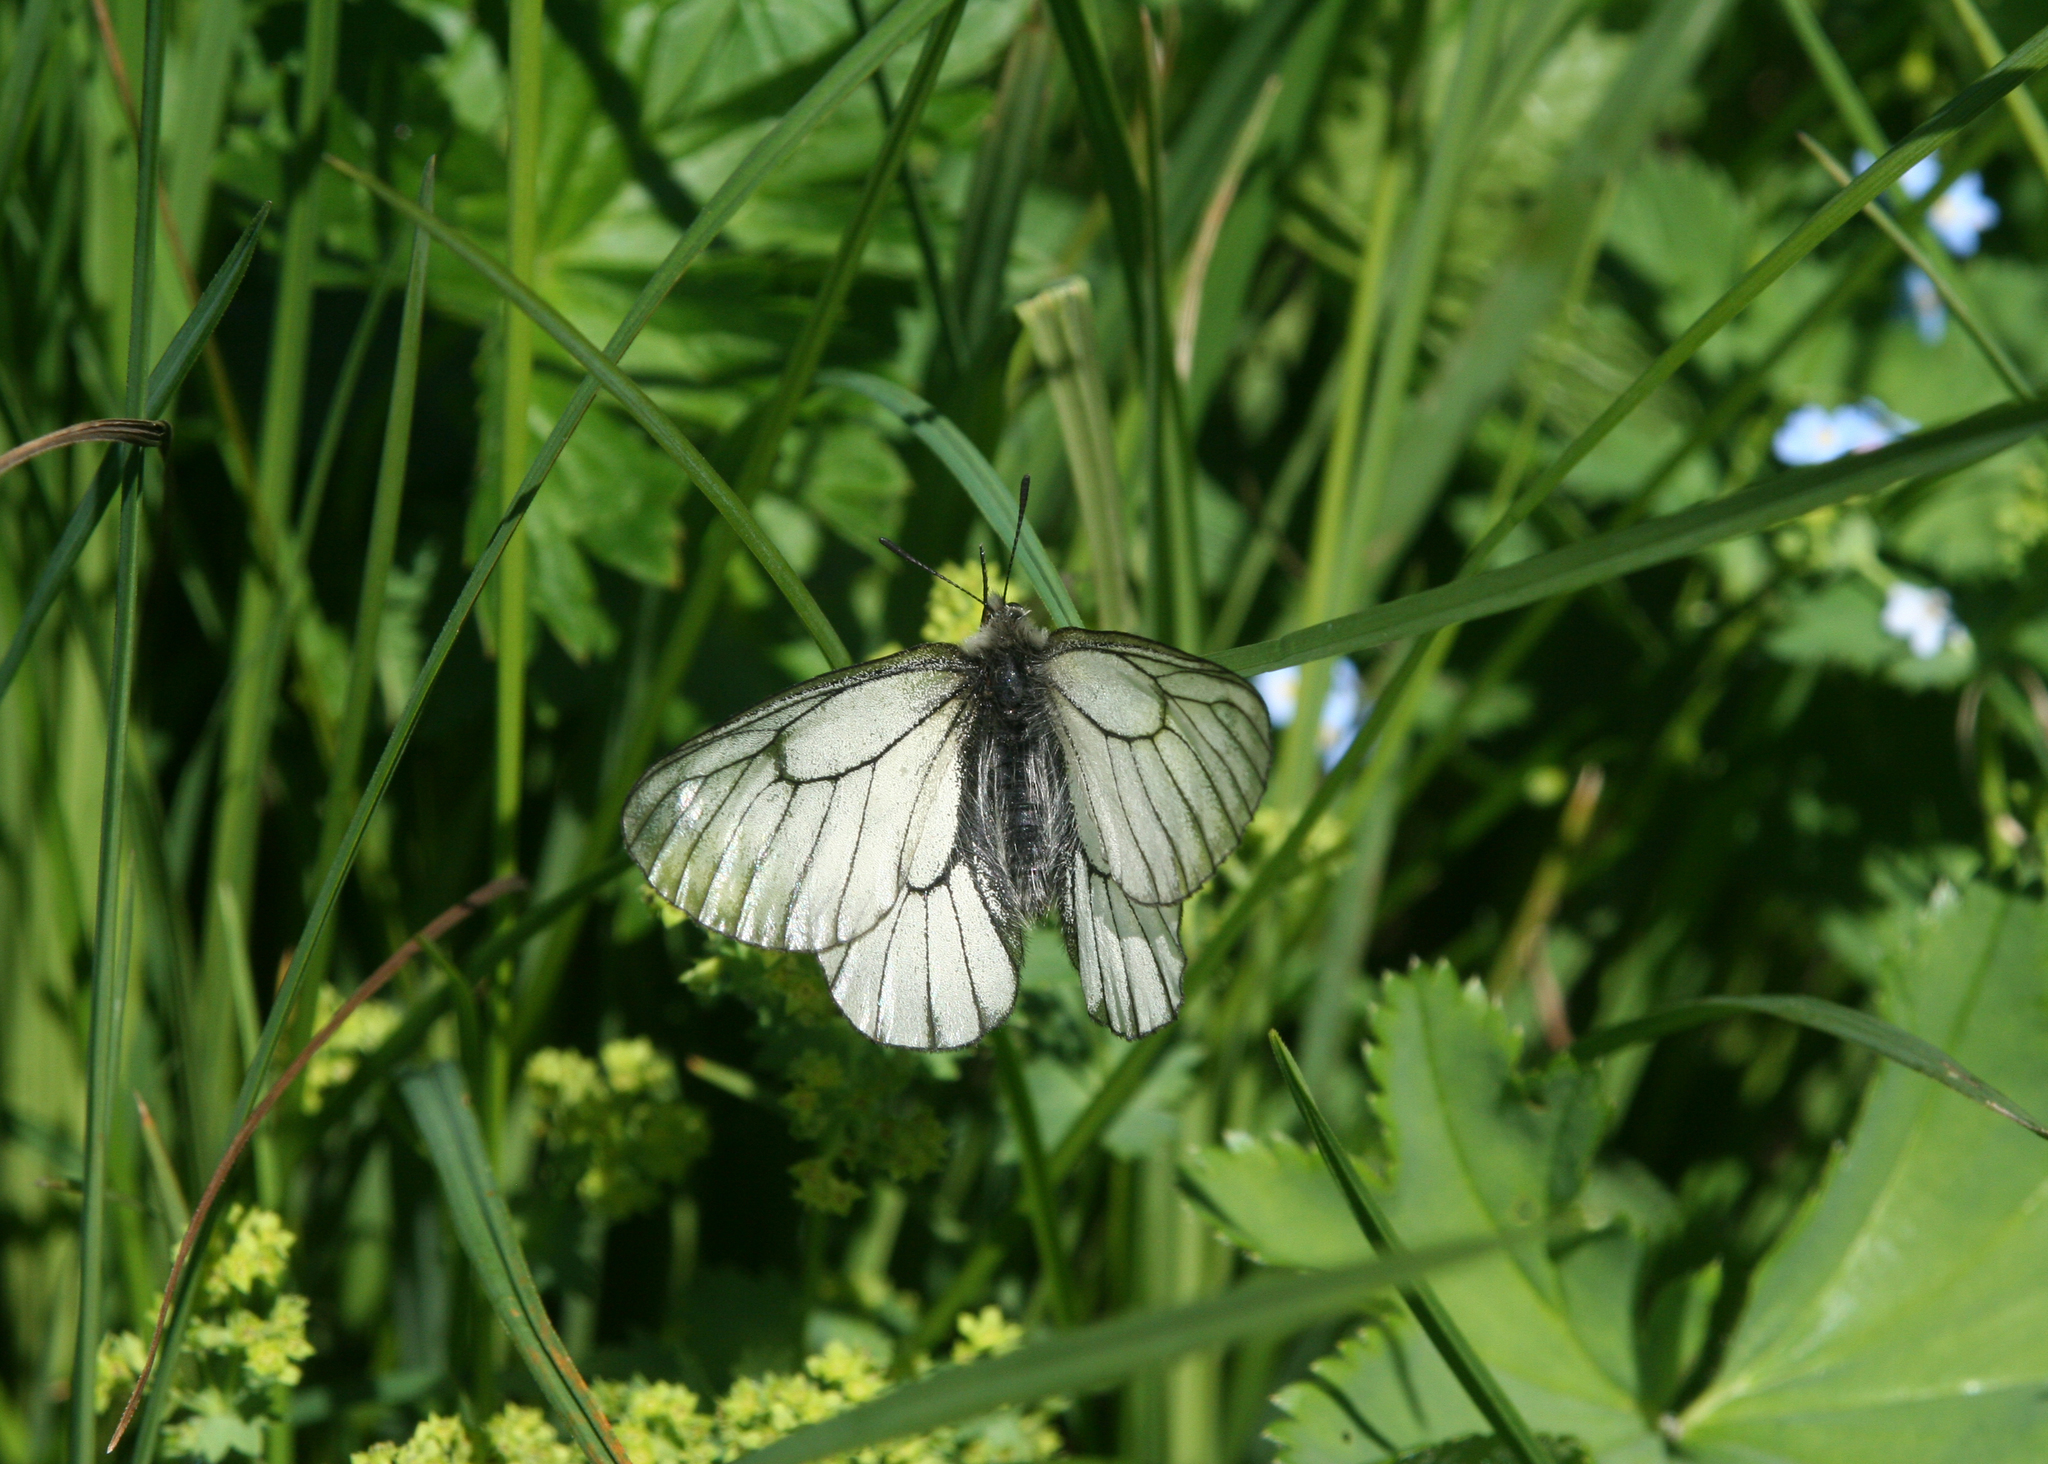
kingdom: Animalia
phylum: Arthropoda
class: Insecta
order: Lepidoptera
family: Papilionidae
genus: Parnassius
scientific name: Parnassius stubbendorfii
